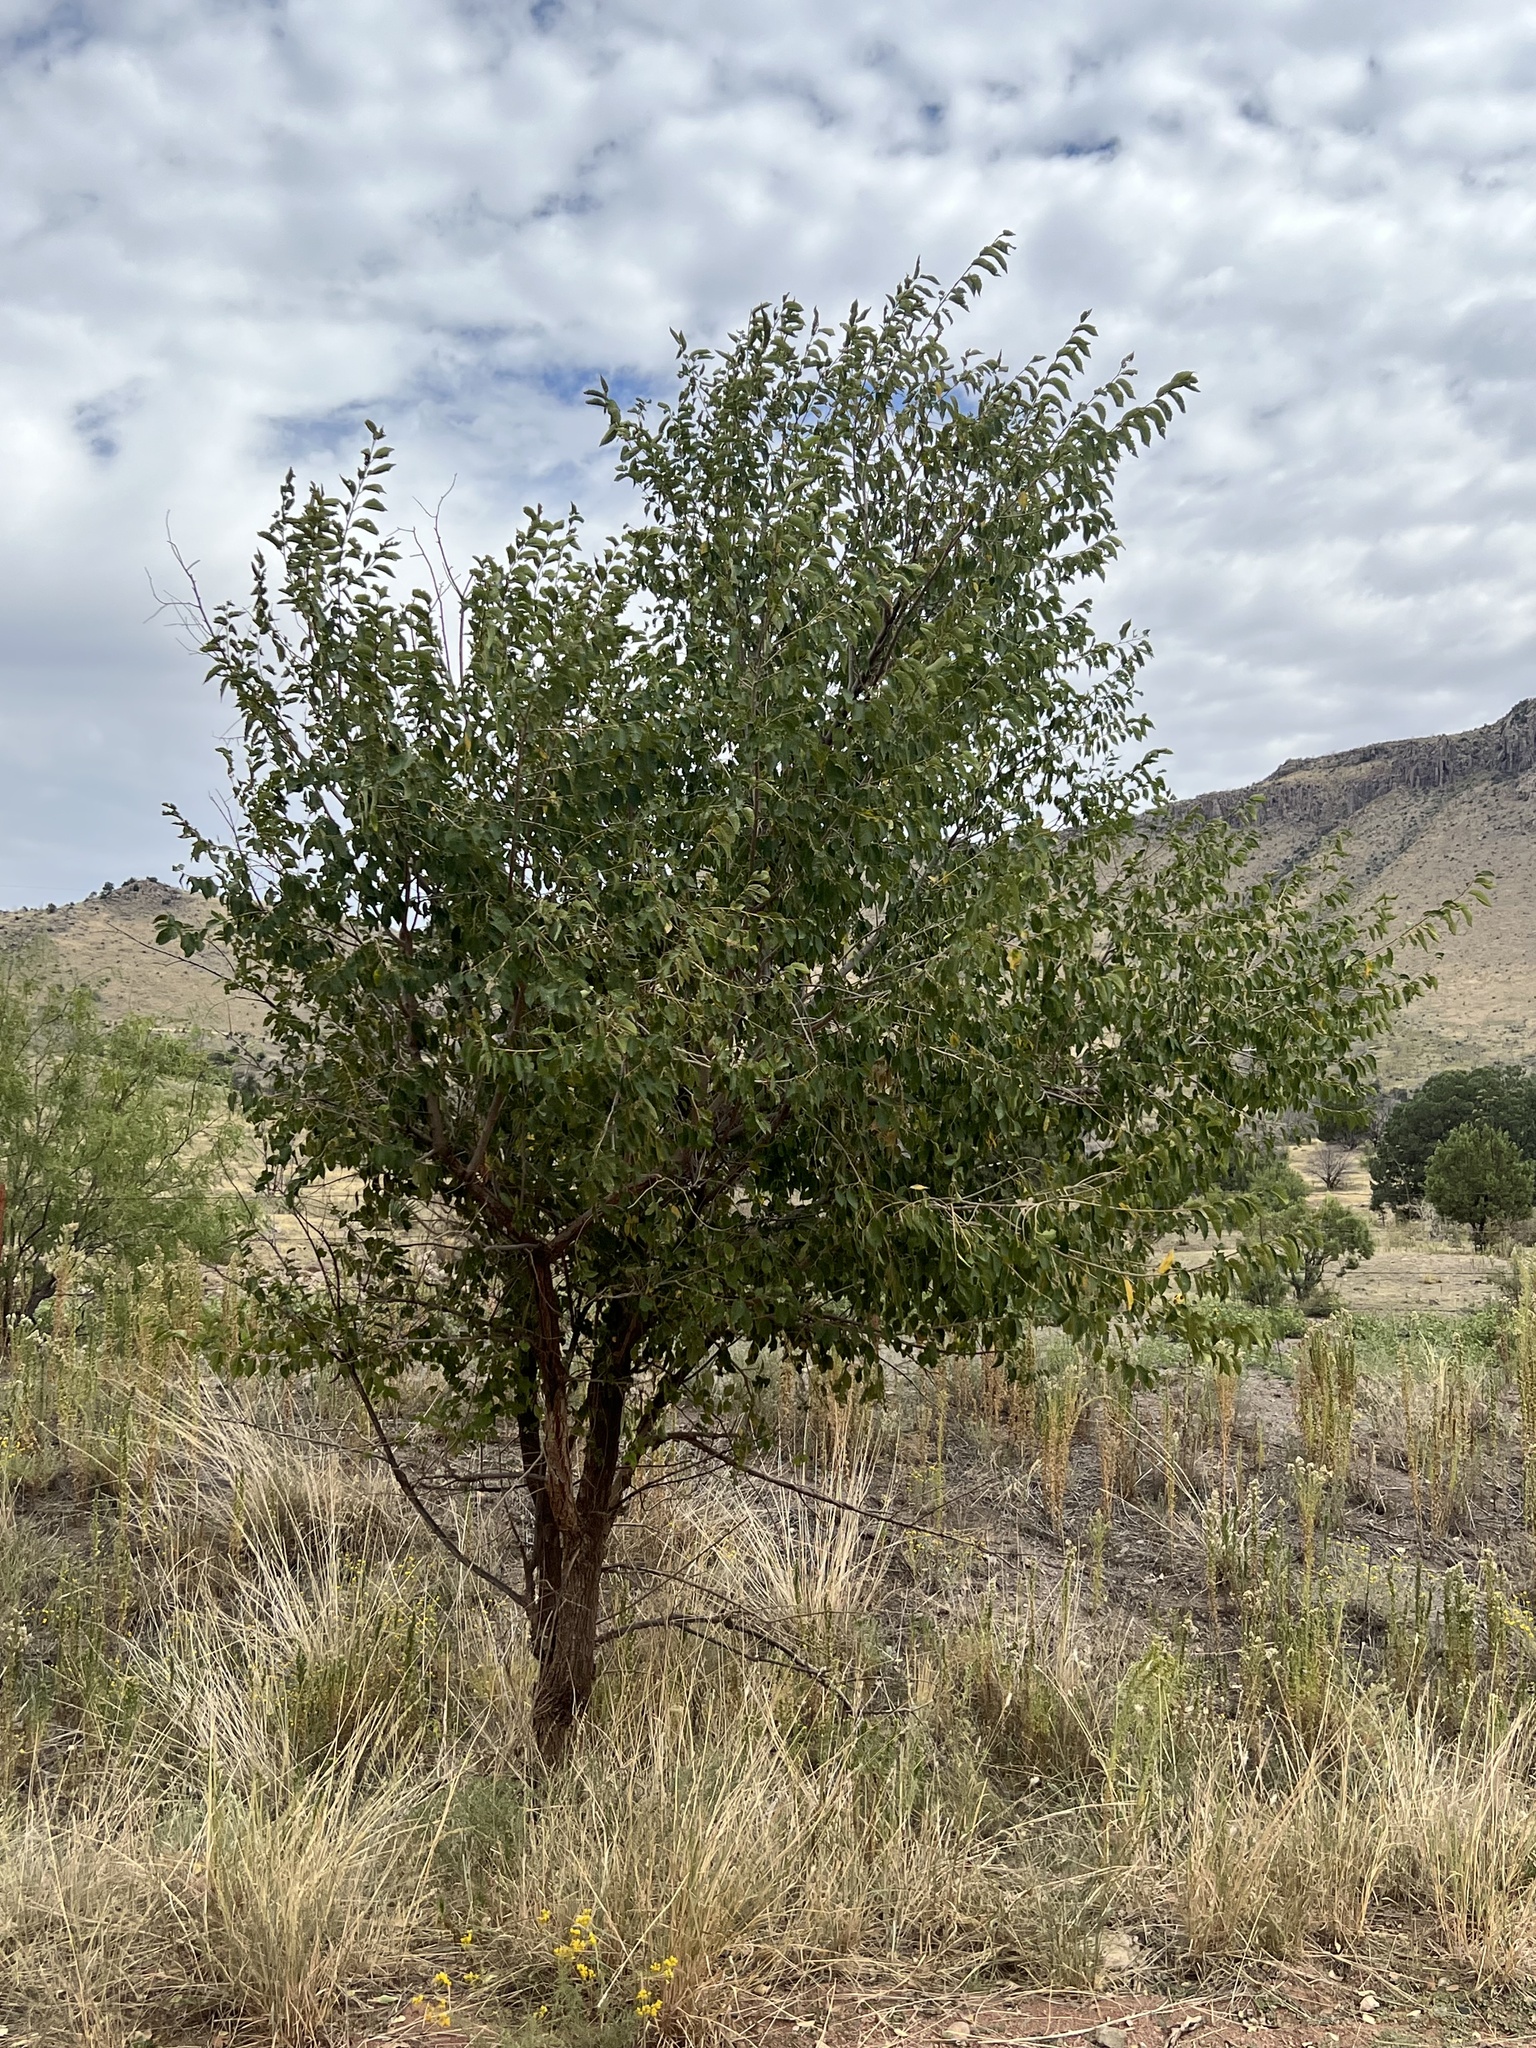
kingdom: Plantae
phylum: Tracheophyta
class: Magnoliopsida
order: Rosales
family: Ulmaceae
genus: Ulmus
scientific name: Ulmus pumila
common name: Siberian elm
